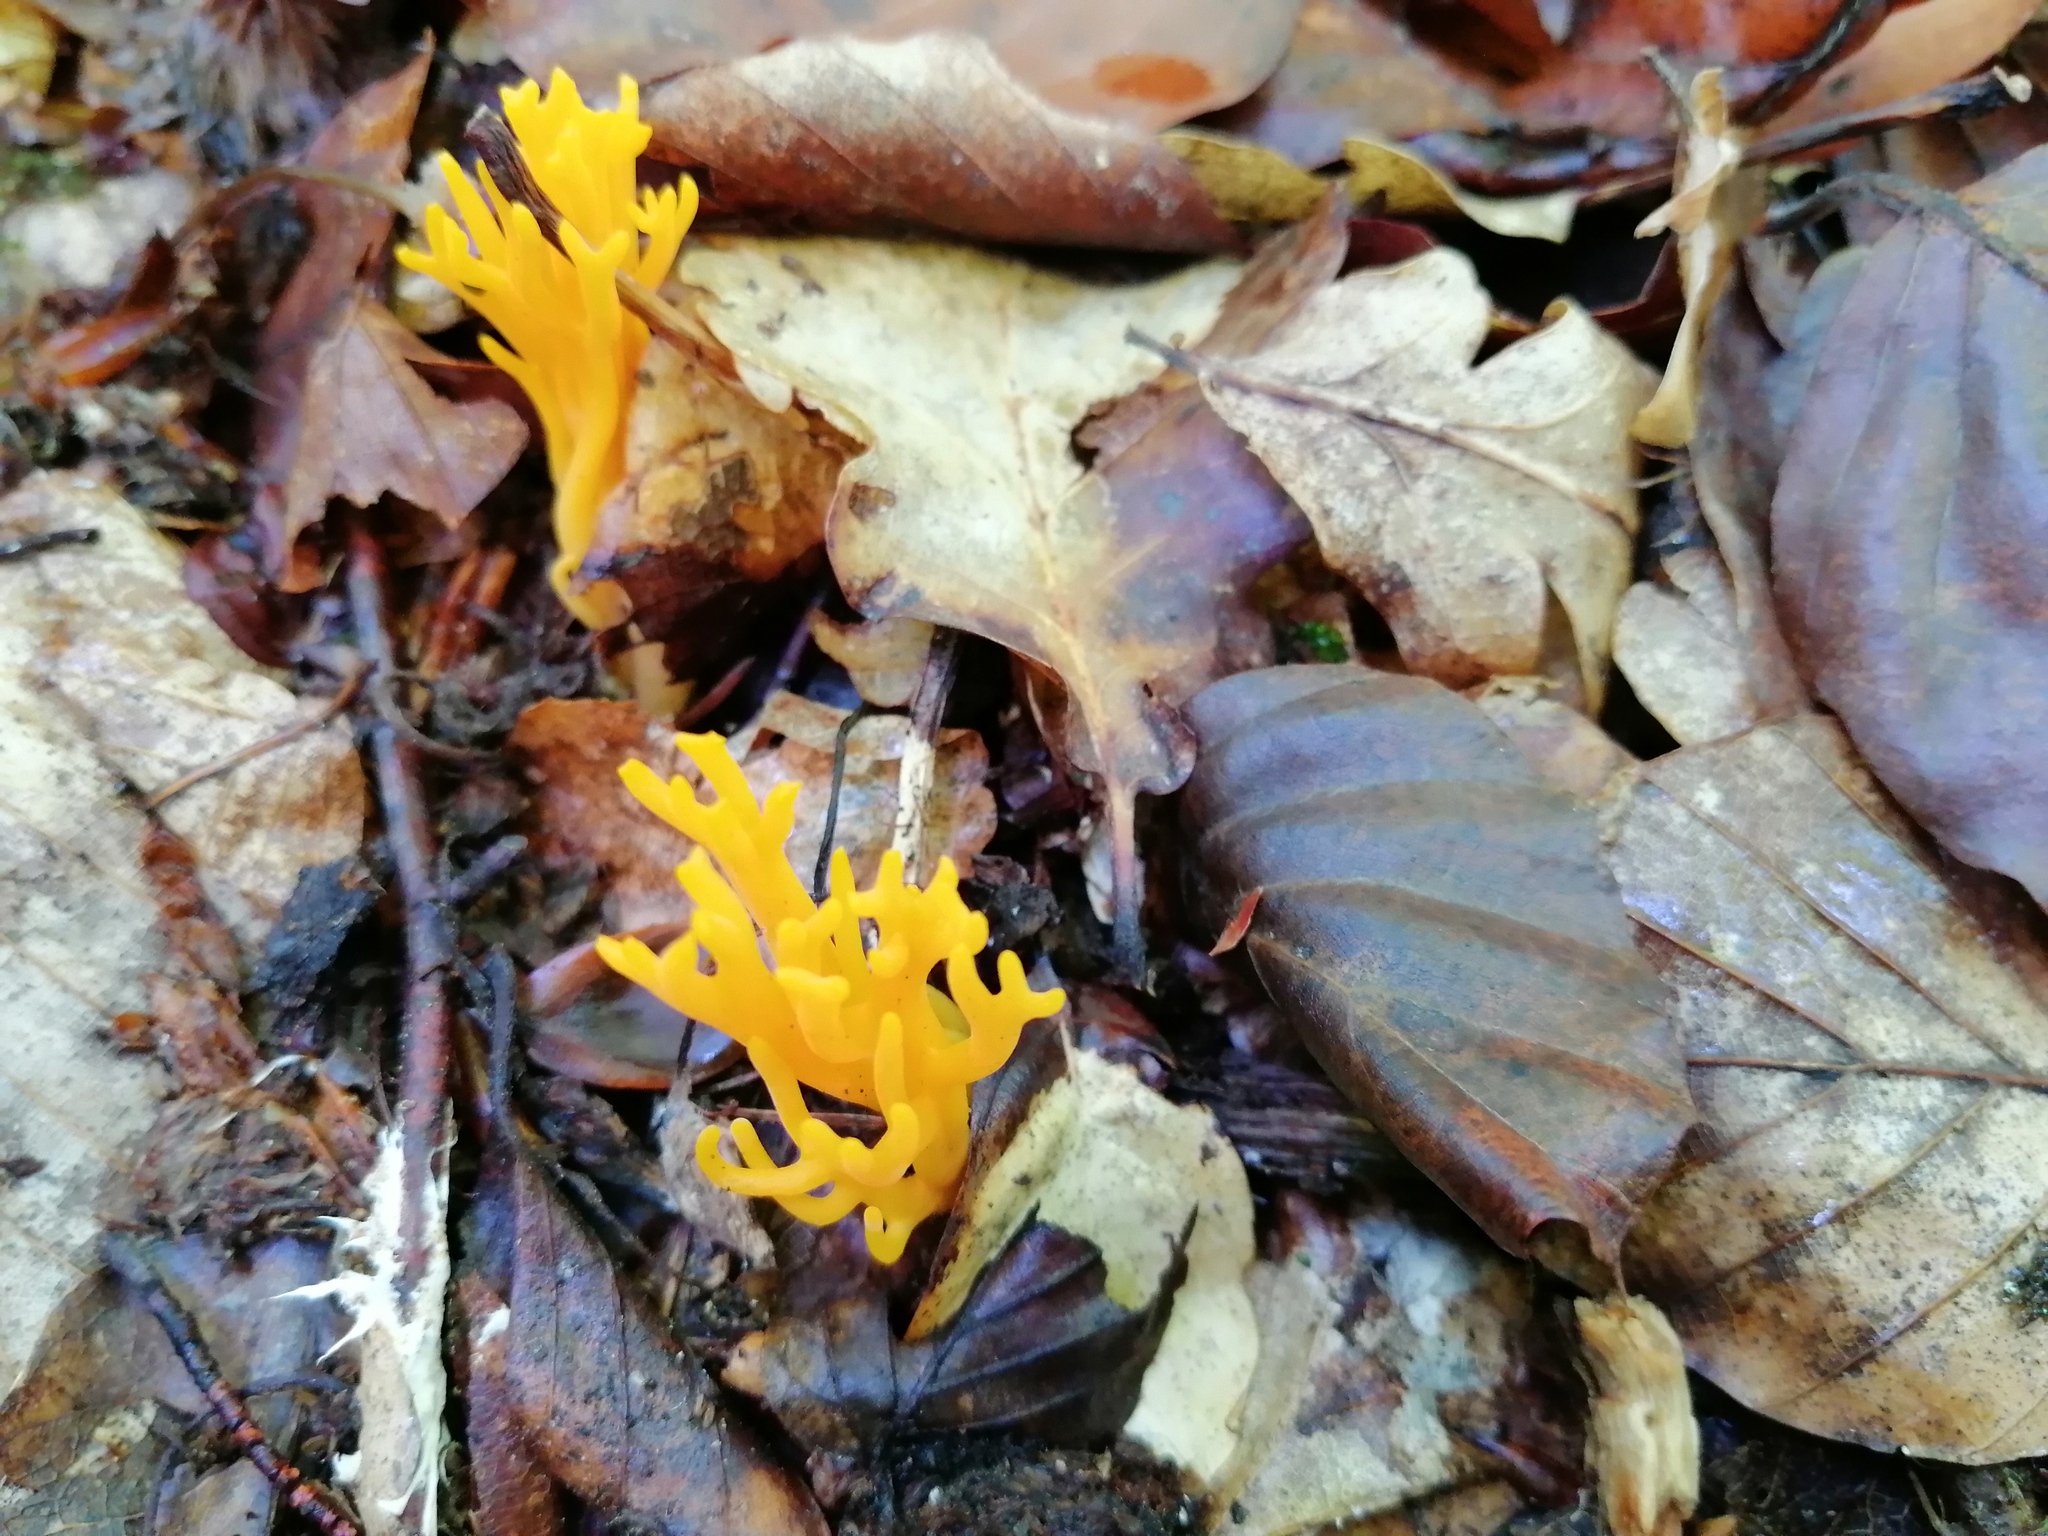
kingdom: Fungi
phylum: Basidiomycota
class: Dacrymycetes
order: Dacrymycetales
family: Dacrymycetaceae
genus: Calocera
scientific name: Calocera viscosa
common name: Yellow stagshorn
